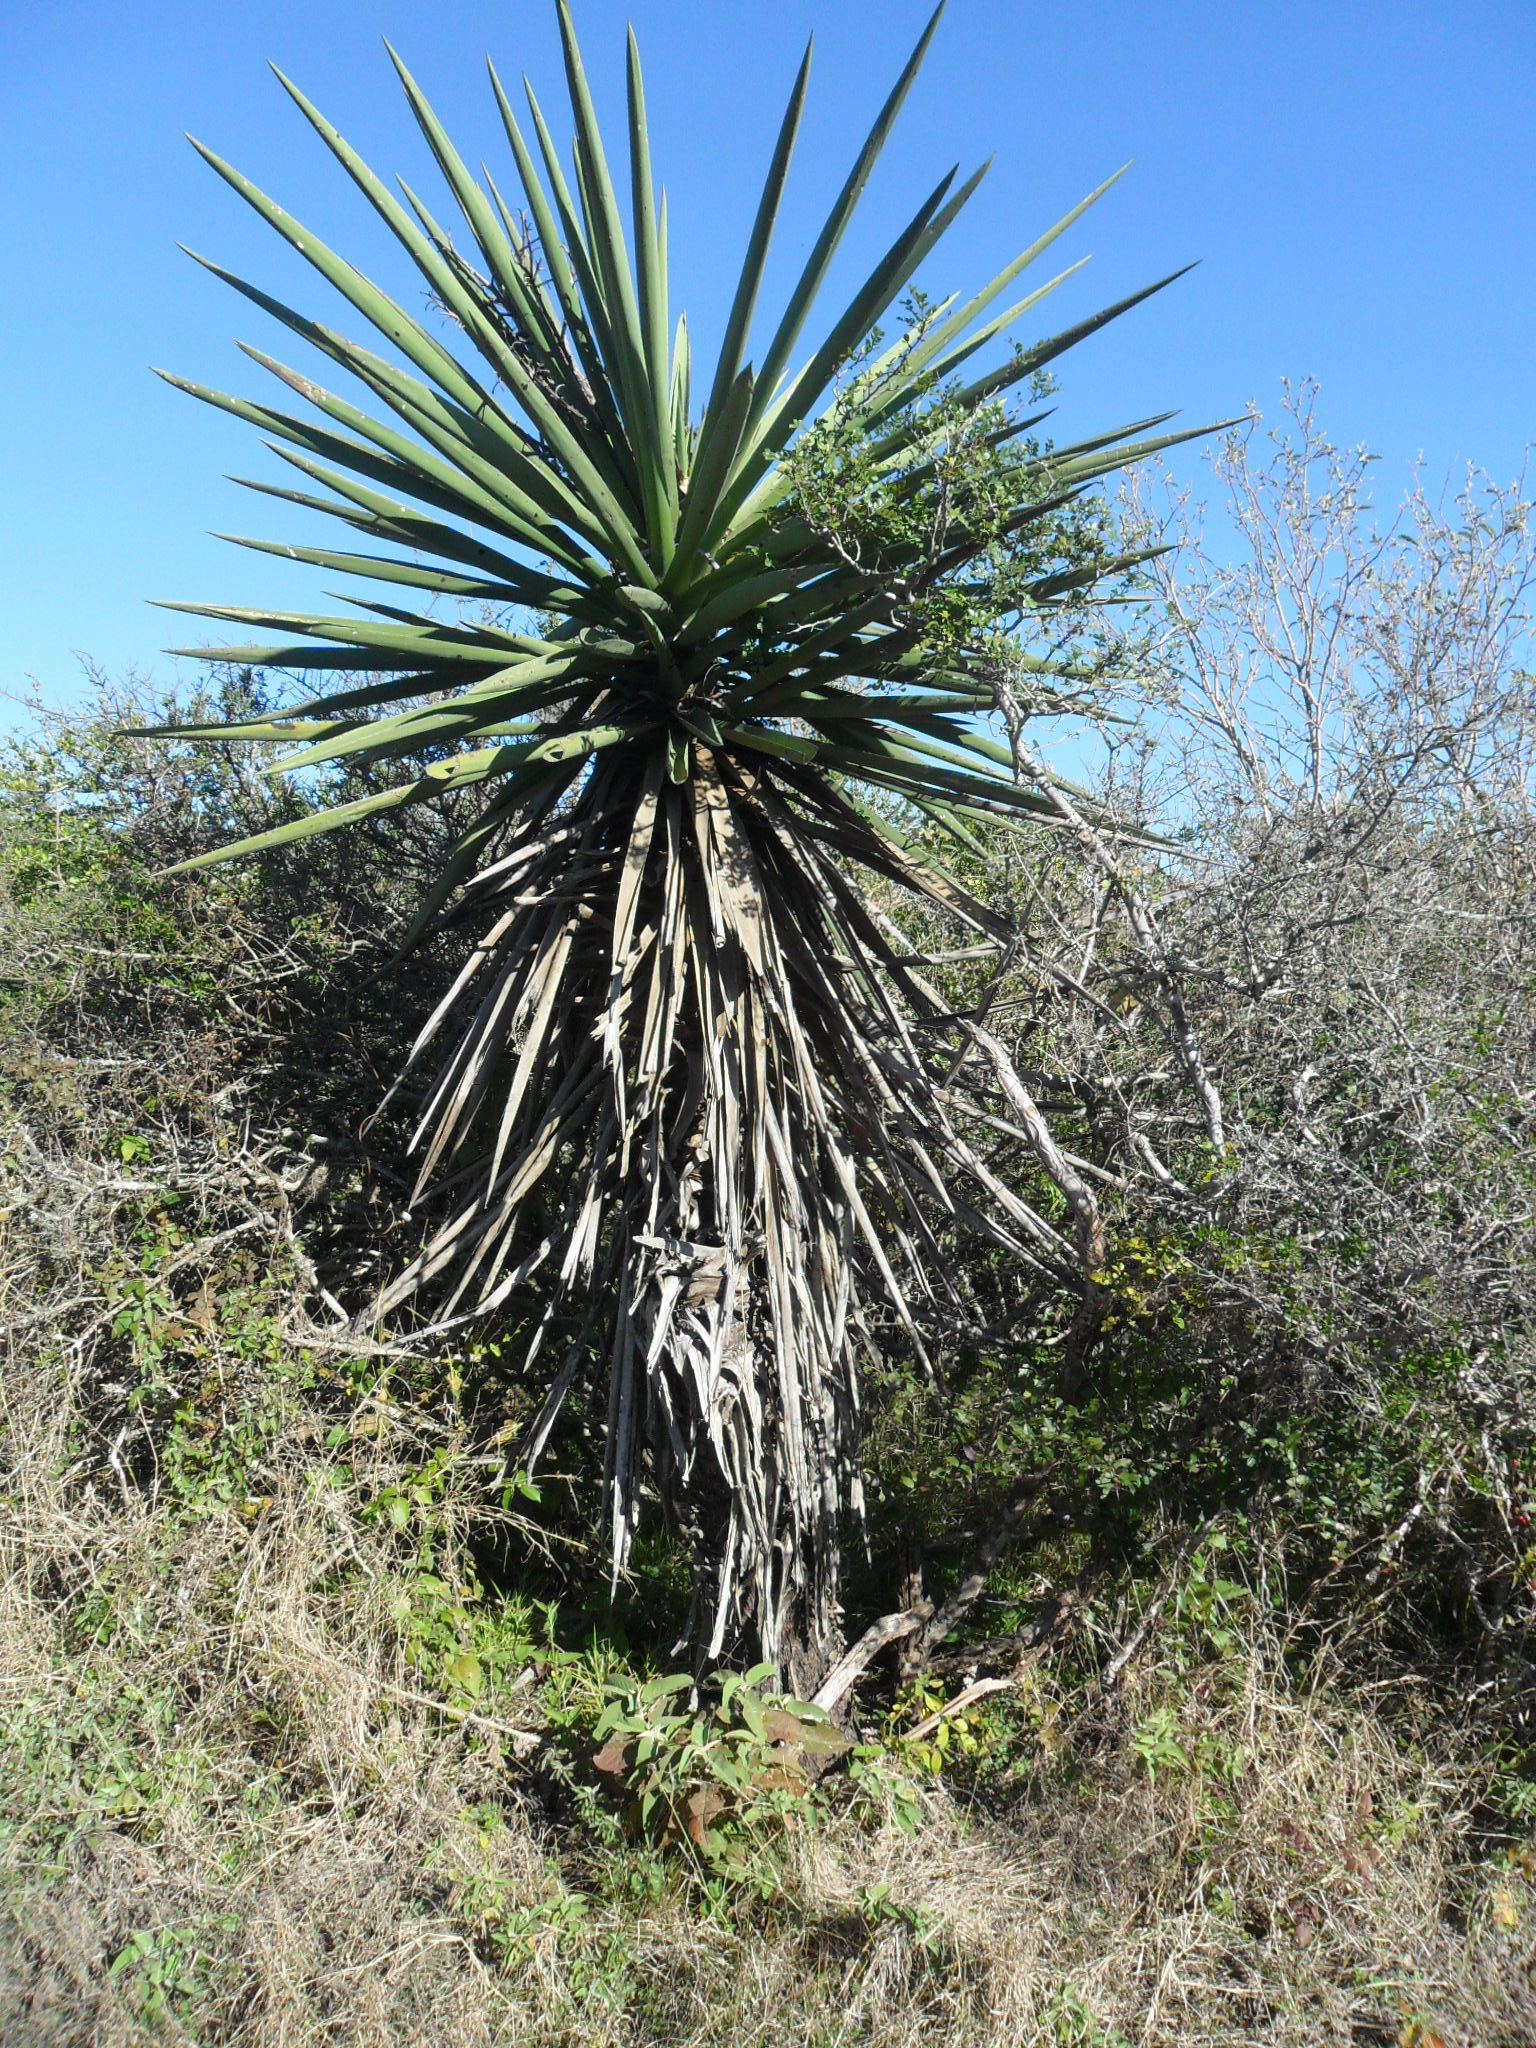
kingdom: Plantae
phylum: Tracheophyta
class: Liliopsida
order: Asparagales
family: Asparagaceae
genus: Yucca
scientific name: Yucca treculiana
